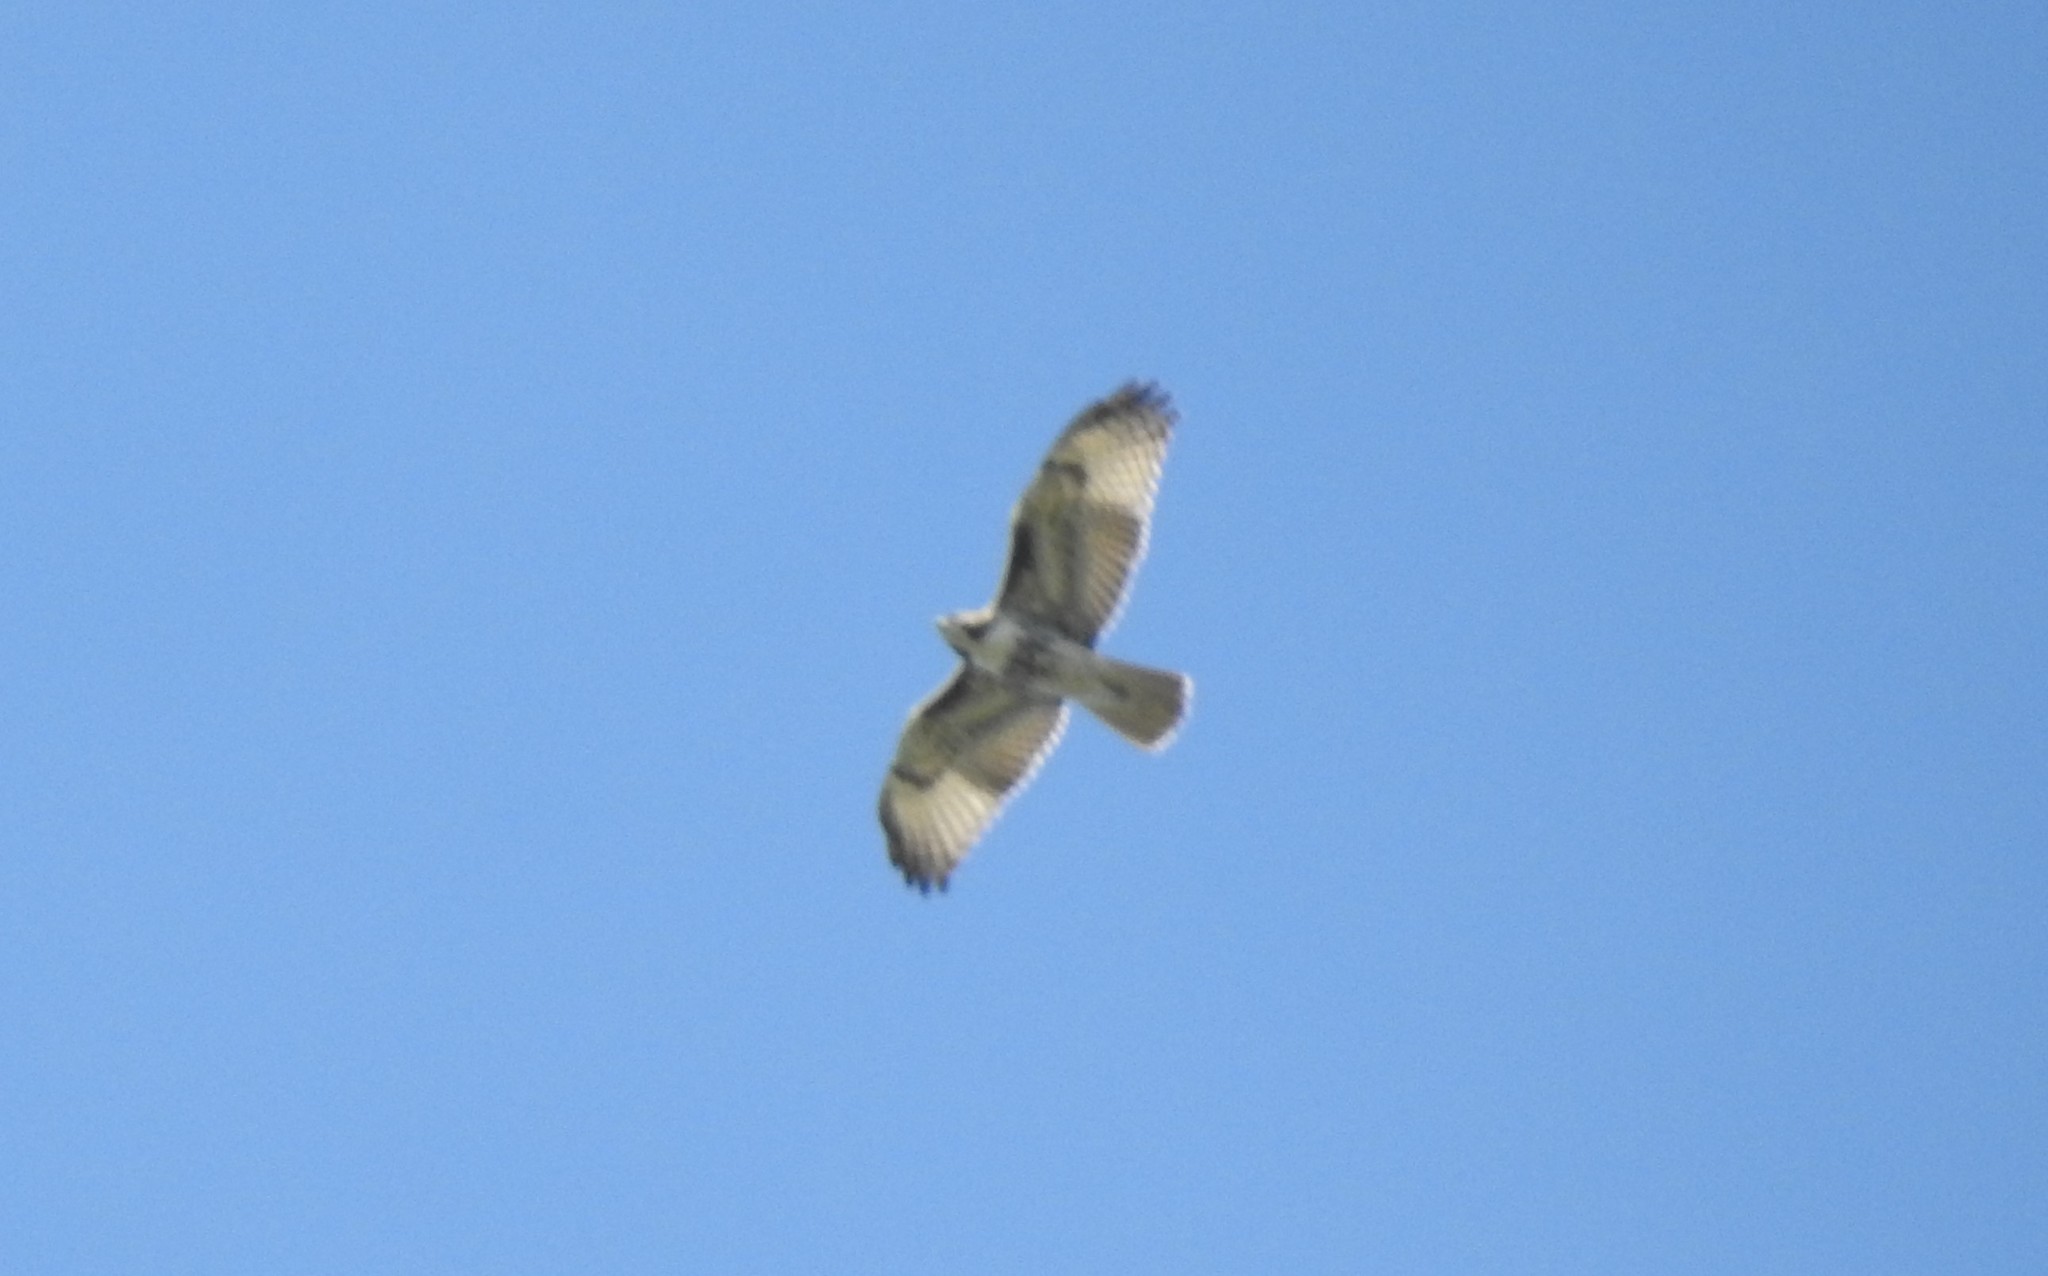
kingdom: Animalia
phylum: Chordata
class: Aves
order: Accipitriformes
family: Accipitridae
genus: Buteo
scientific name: Buteo jamaicensis
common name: Red-tailed hawk
